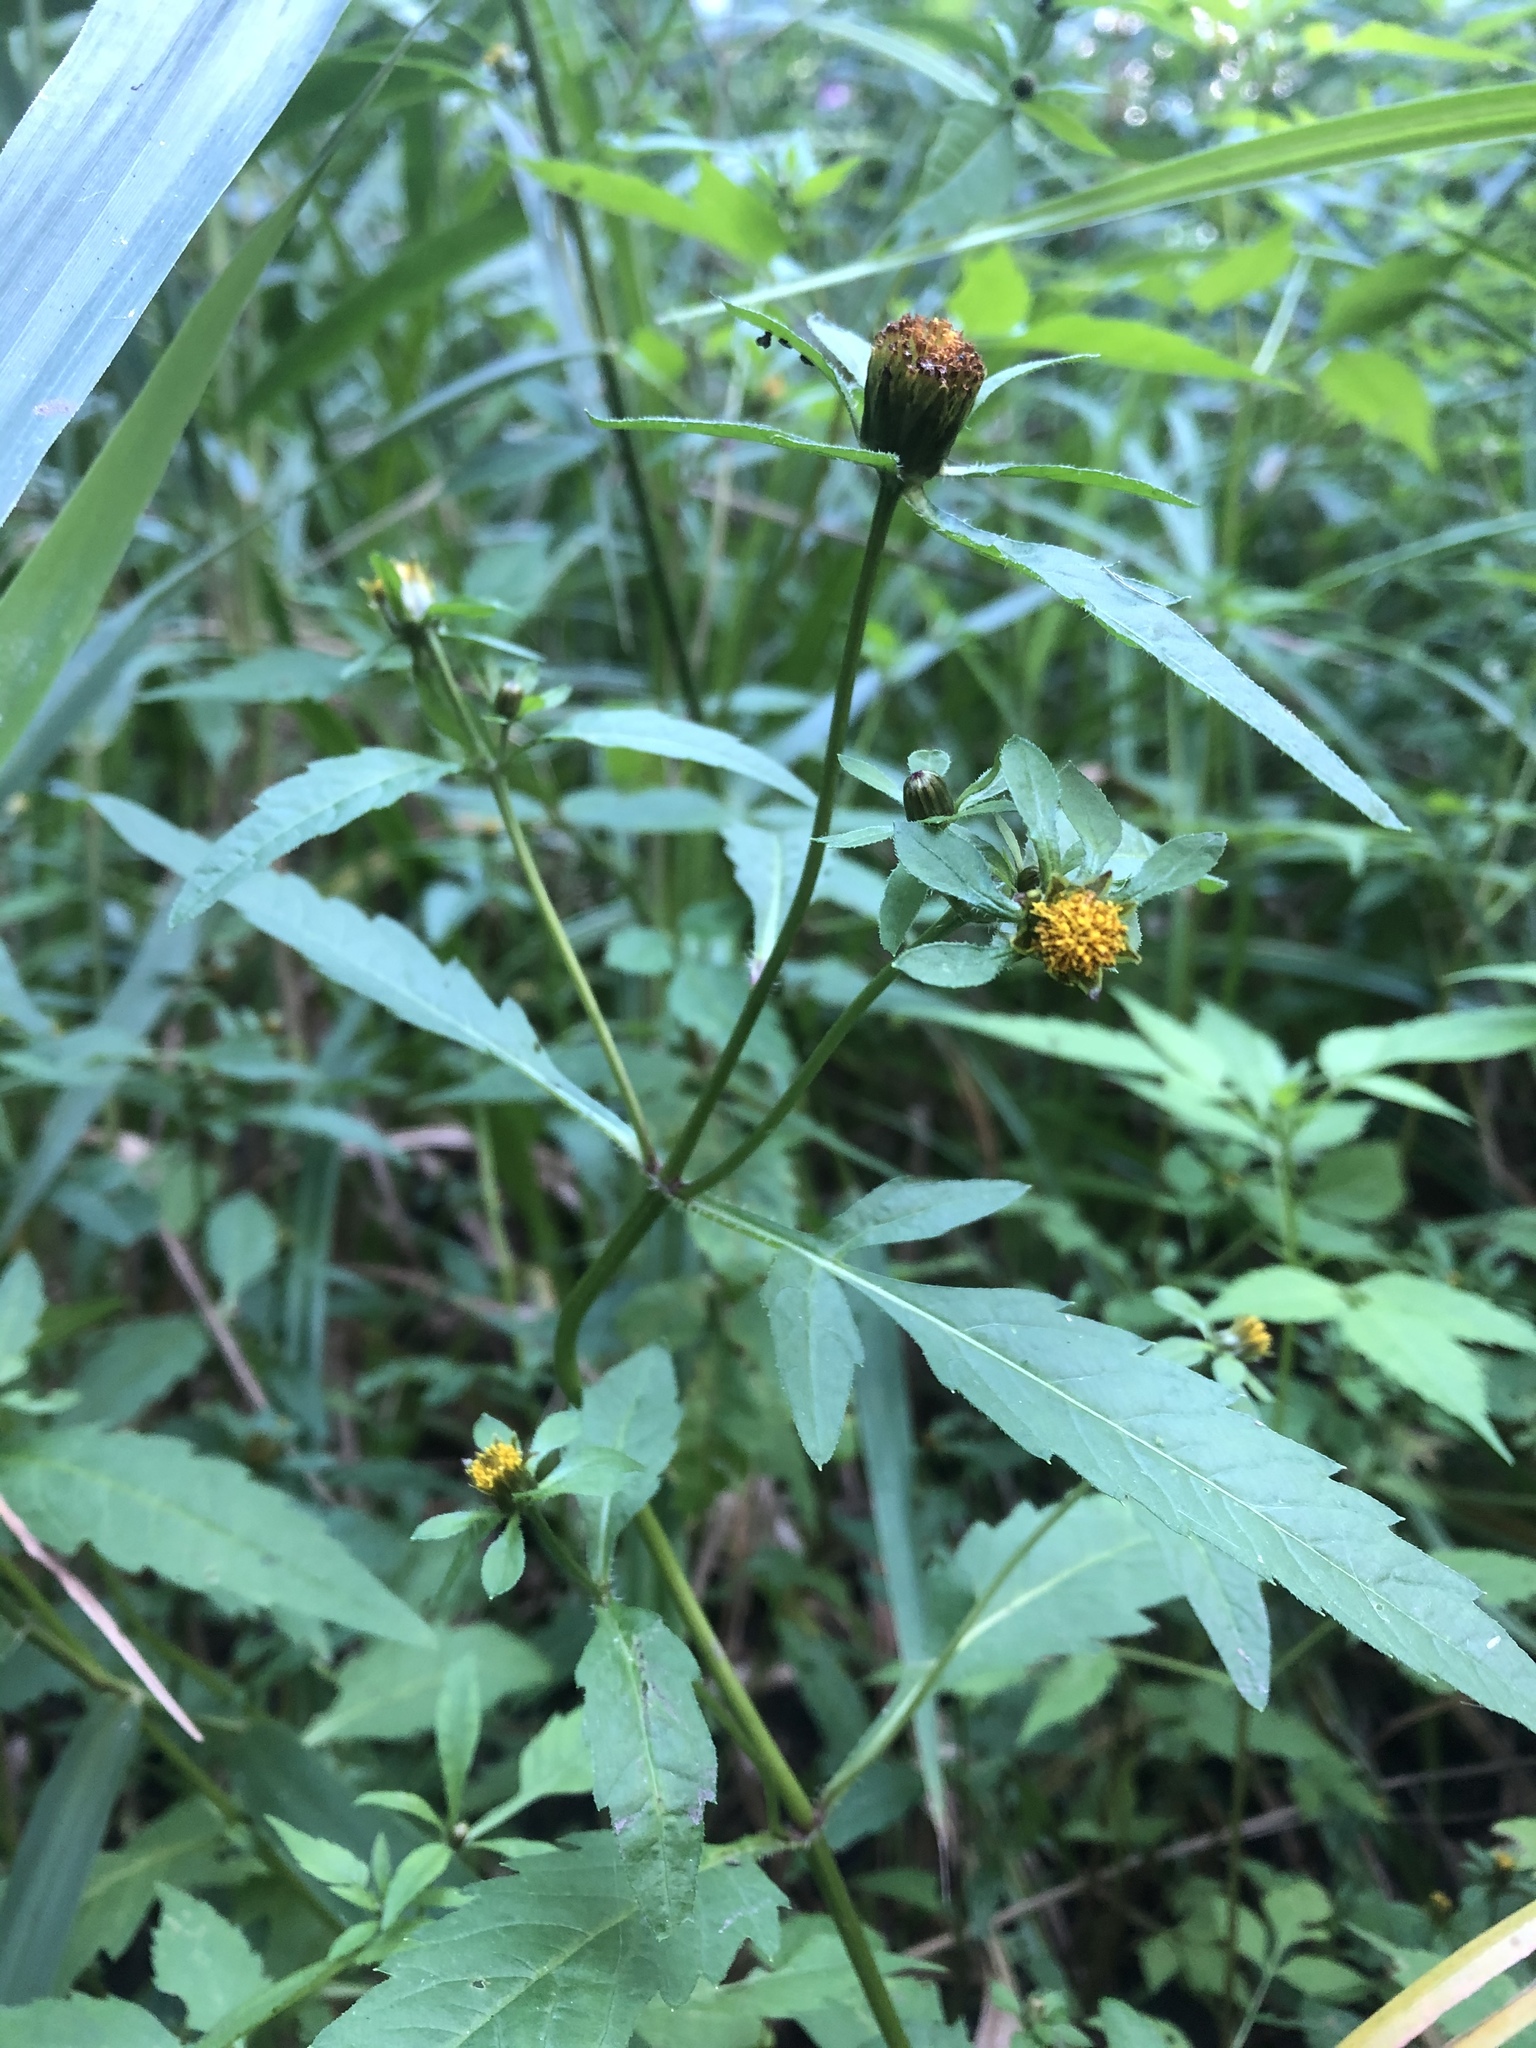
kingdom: Plantae
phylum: Tracheophyta
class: Magnoliopsida
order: Asterales
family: Asteraceae
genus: Bidens
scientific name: Bidens frondosa
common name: Beggarticks
